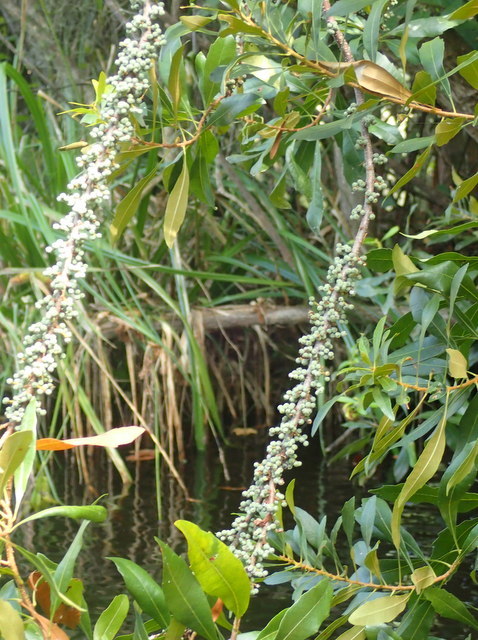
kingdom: Plantae
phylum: Tracheophyta
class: Magnoliopsida
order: Fagales
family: Myricaceae
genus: Morella
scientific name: Morella cerifera
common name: Wax myrtle
